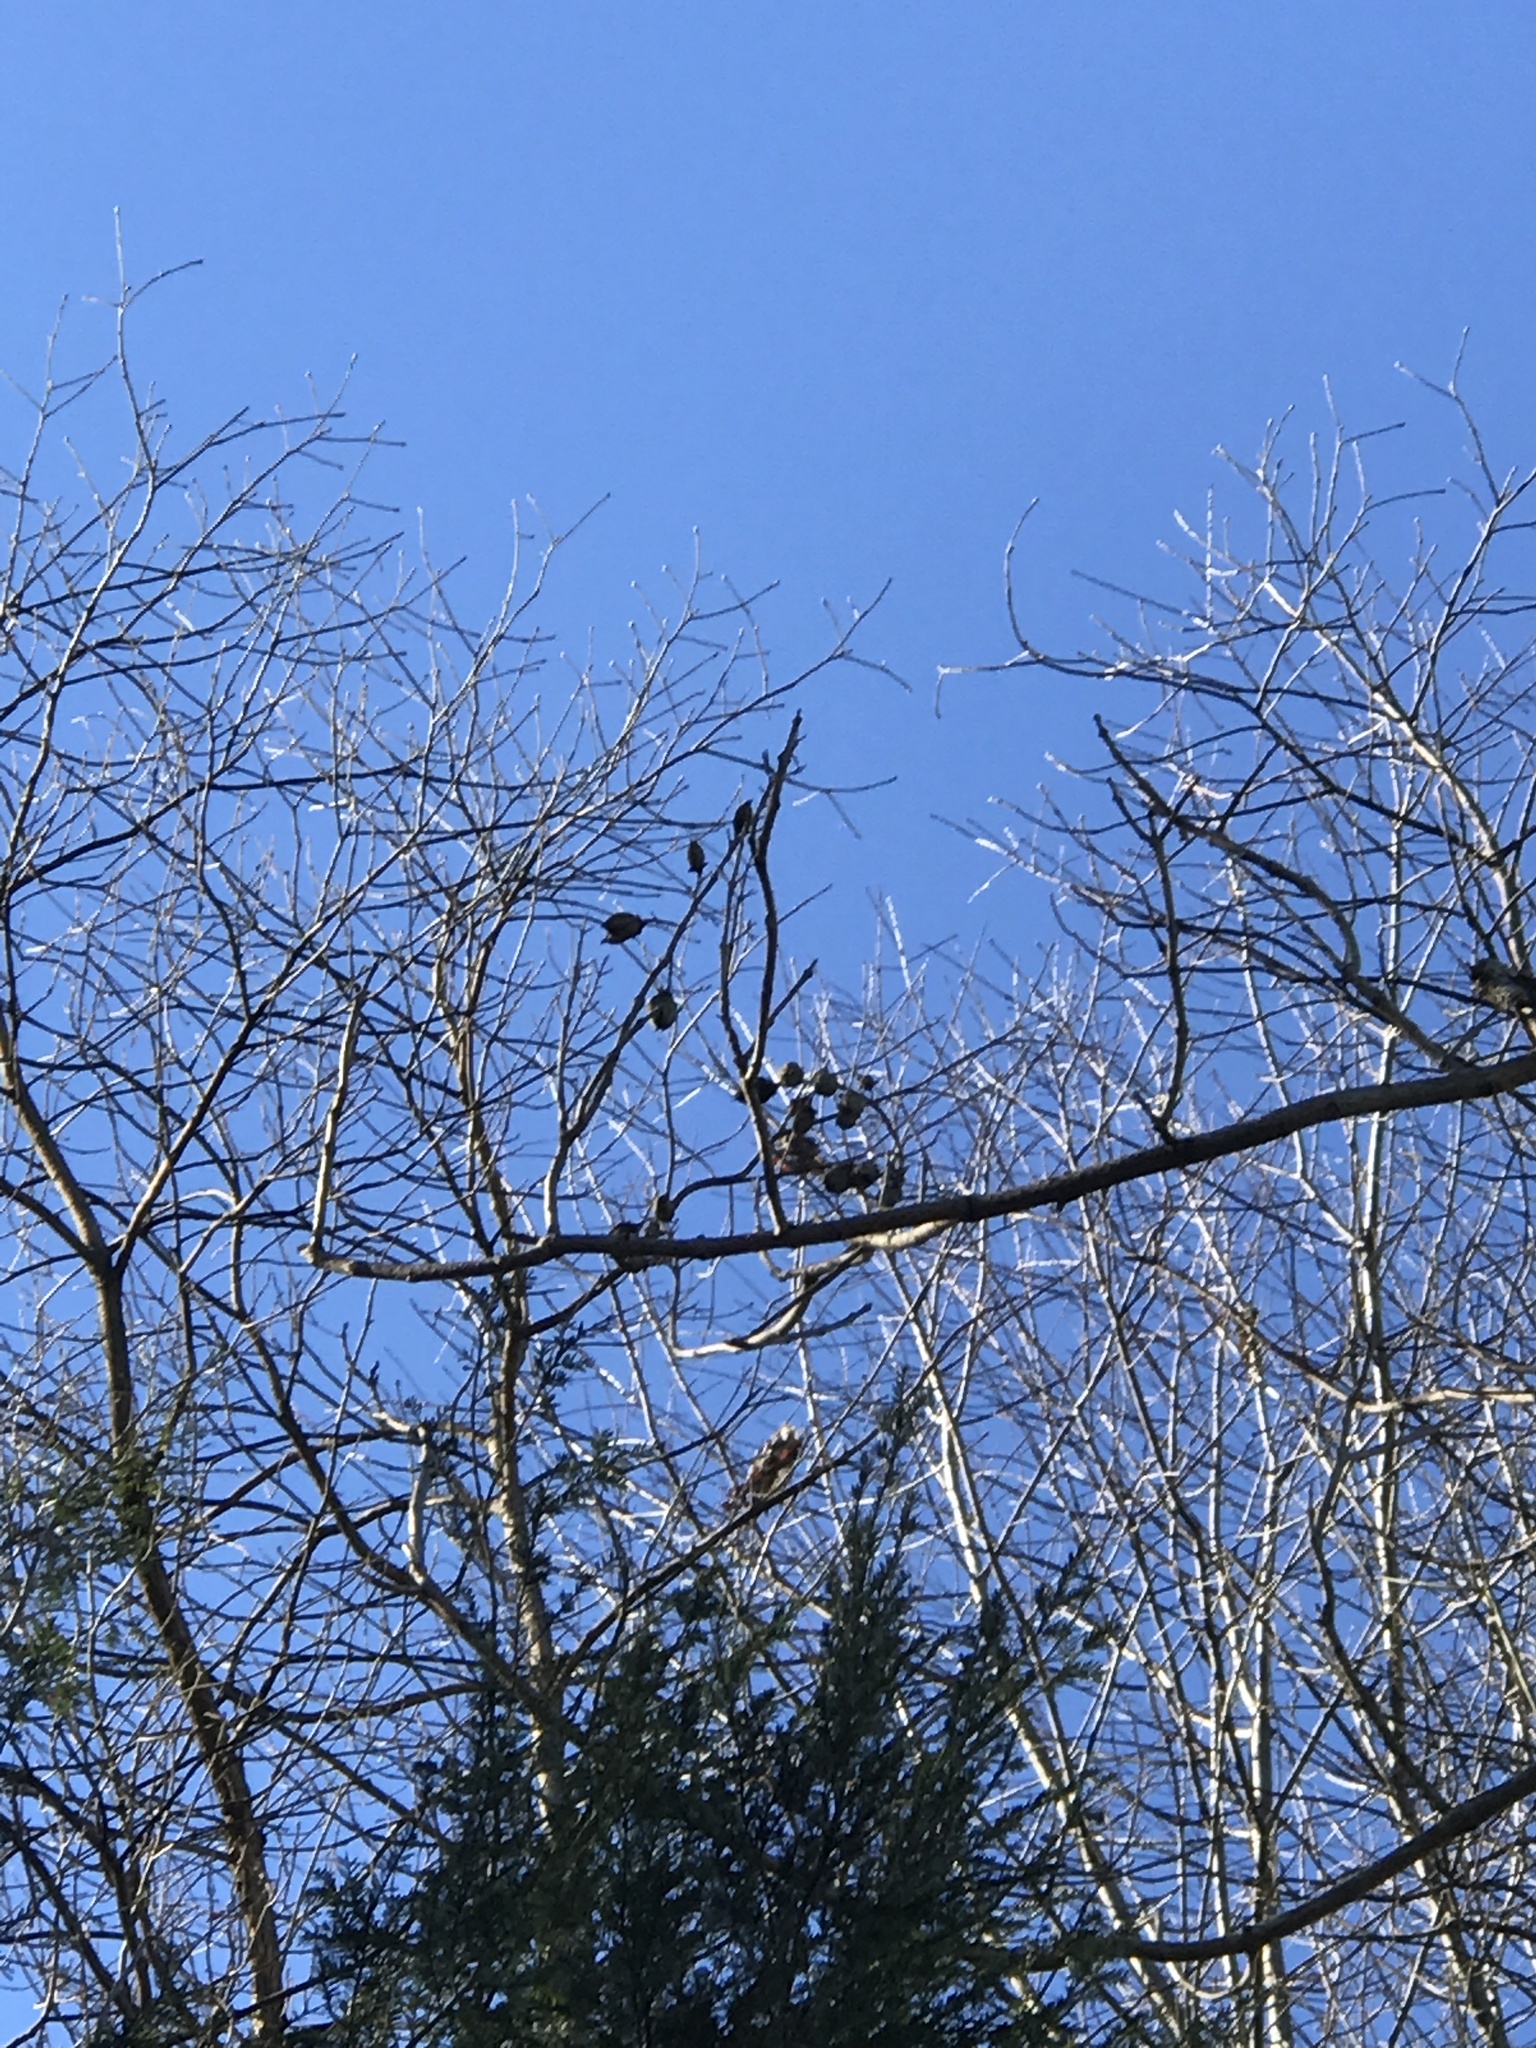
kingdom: Plantae
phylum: Tracheophyta
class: Magnoliopsida
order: Lamiales
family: Paulowniaceae
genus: Paulownia
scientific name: Paulownia tomentosa
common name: Foxglove-tree
